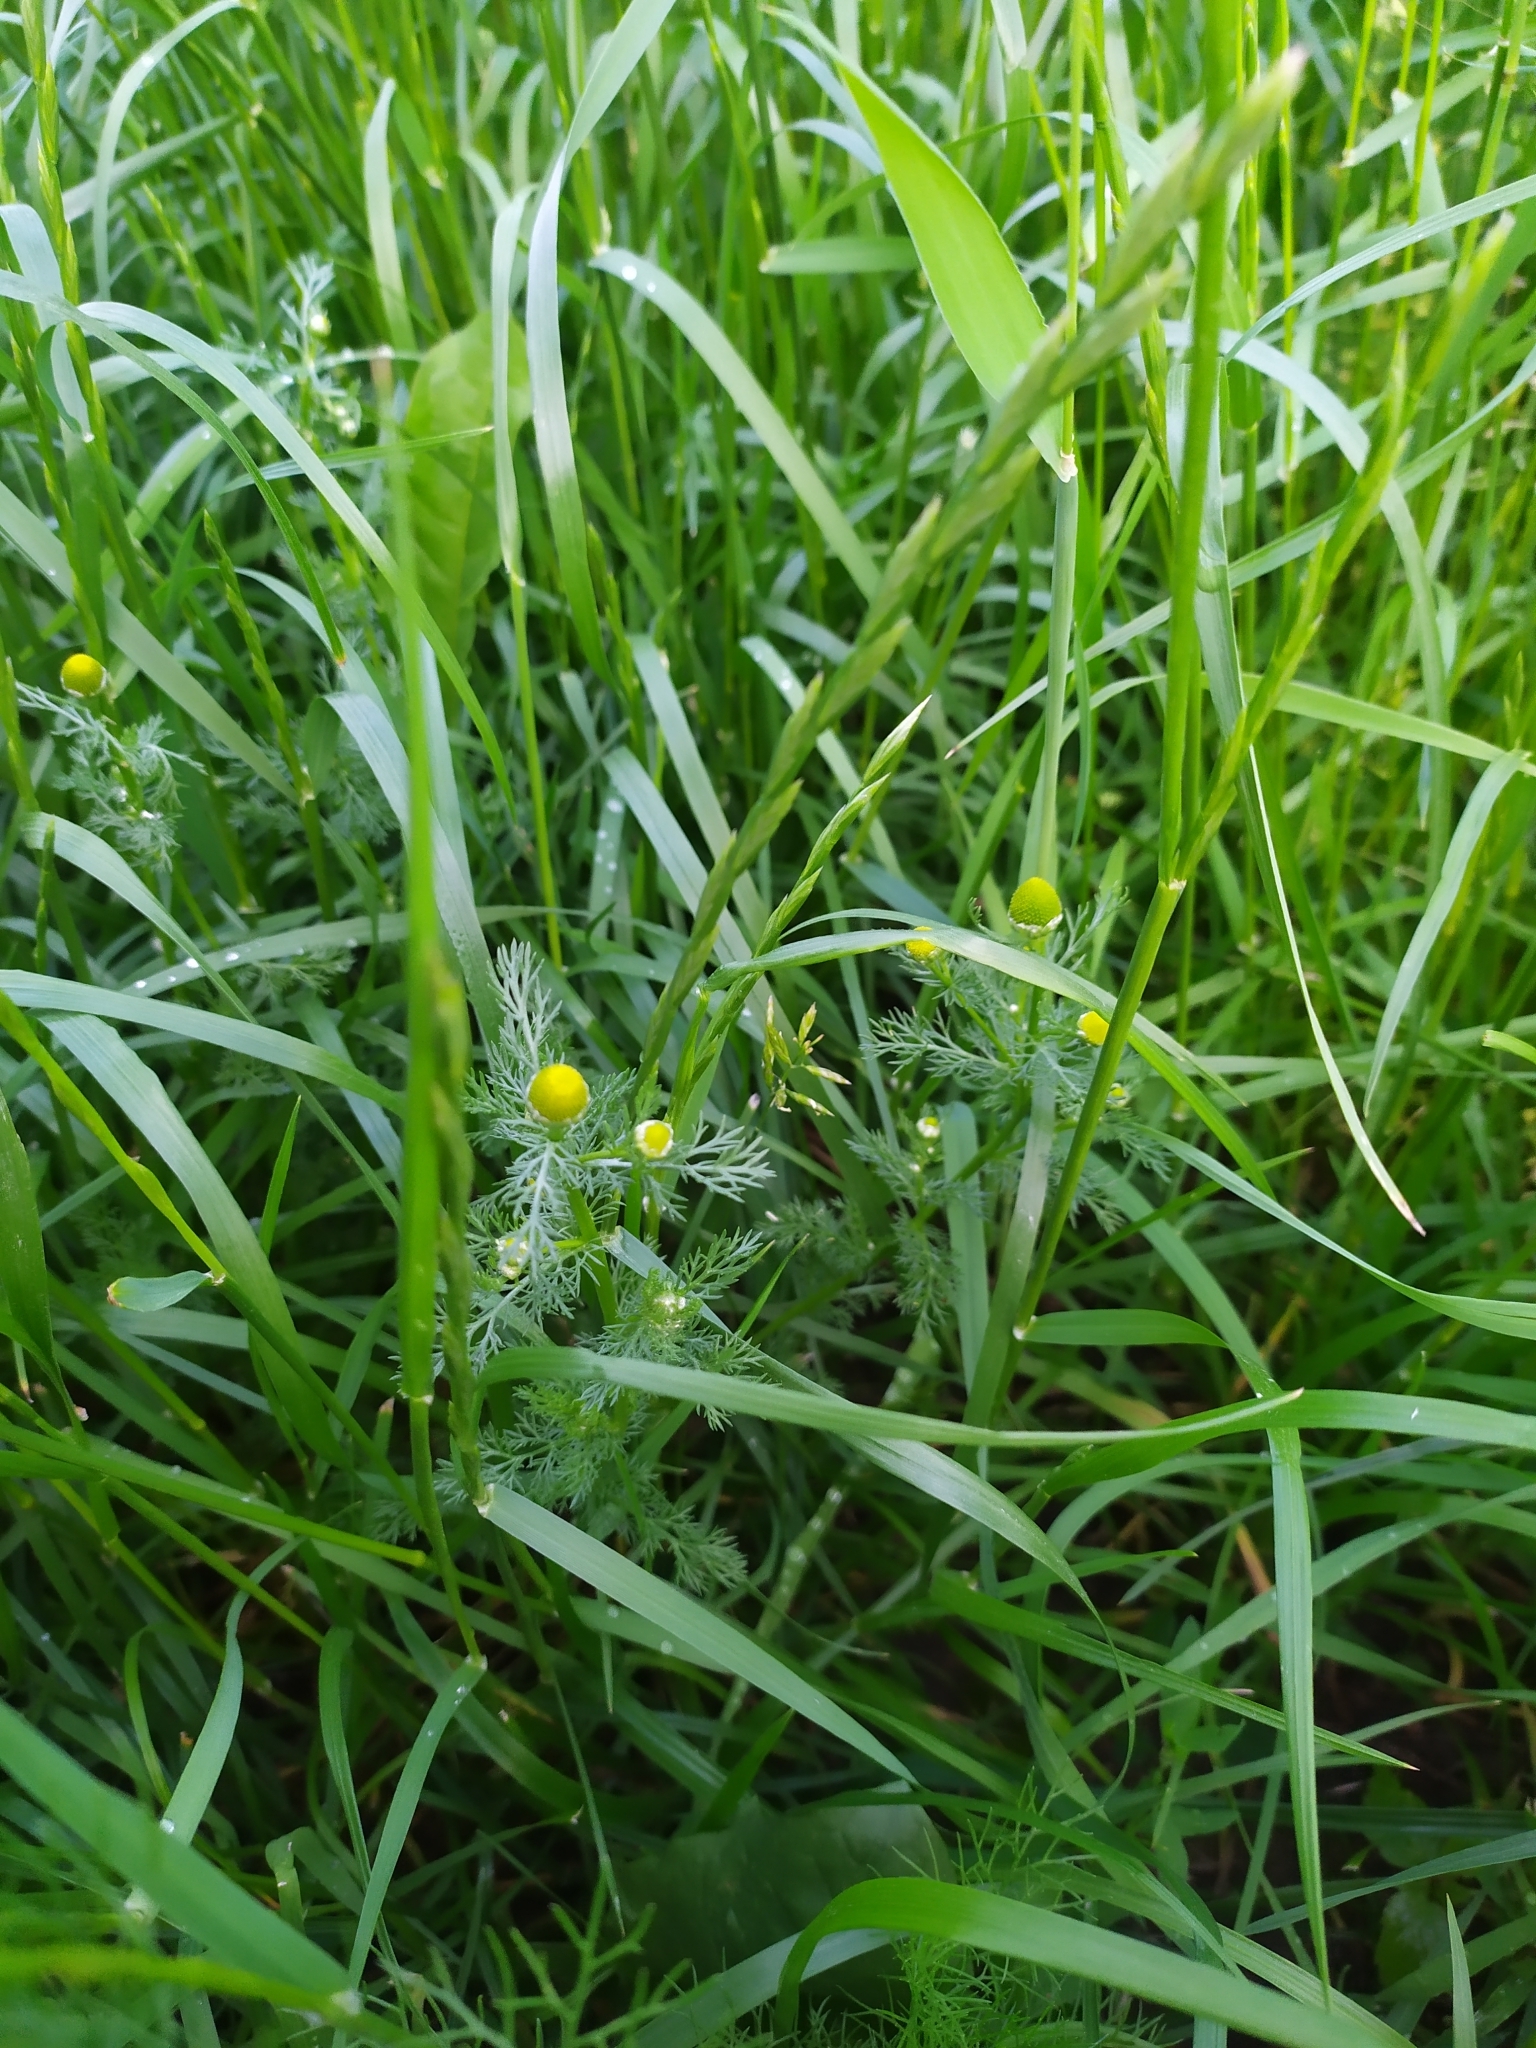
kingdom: Plantae
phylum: Tracheophyta
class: Magnoliopsida
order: Asterales
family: Asteraceae
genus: Matricaria
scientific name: Matricaria discoidea
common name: Disc mayweed
